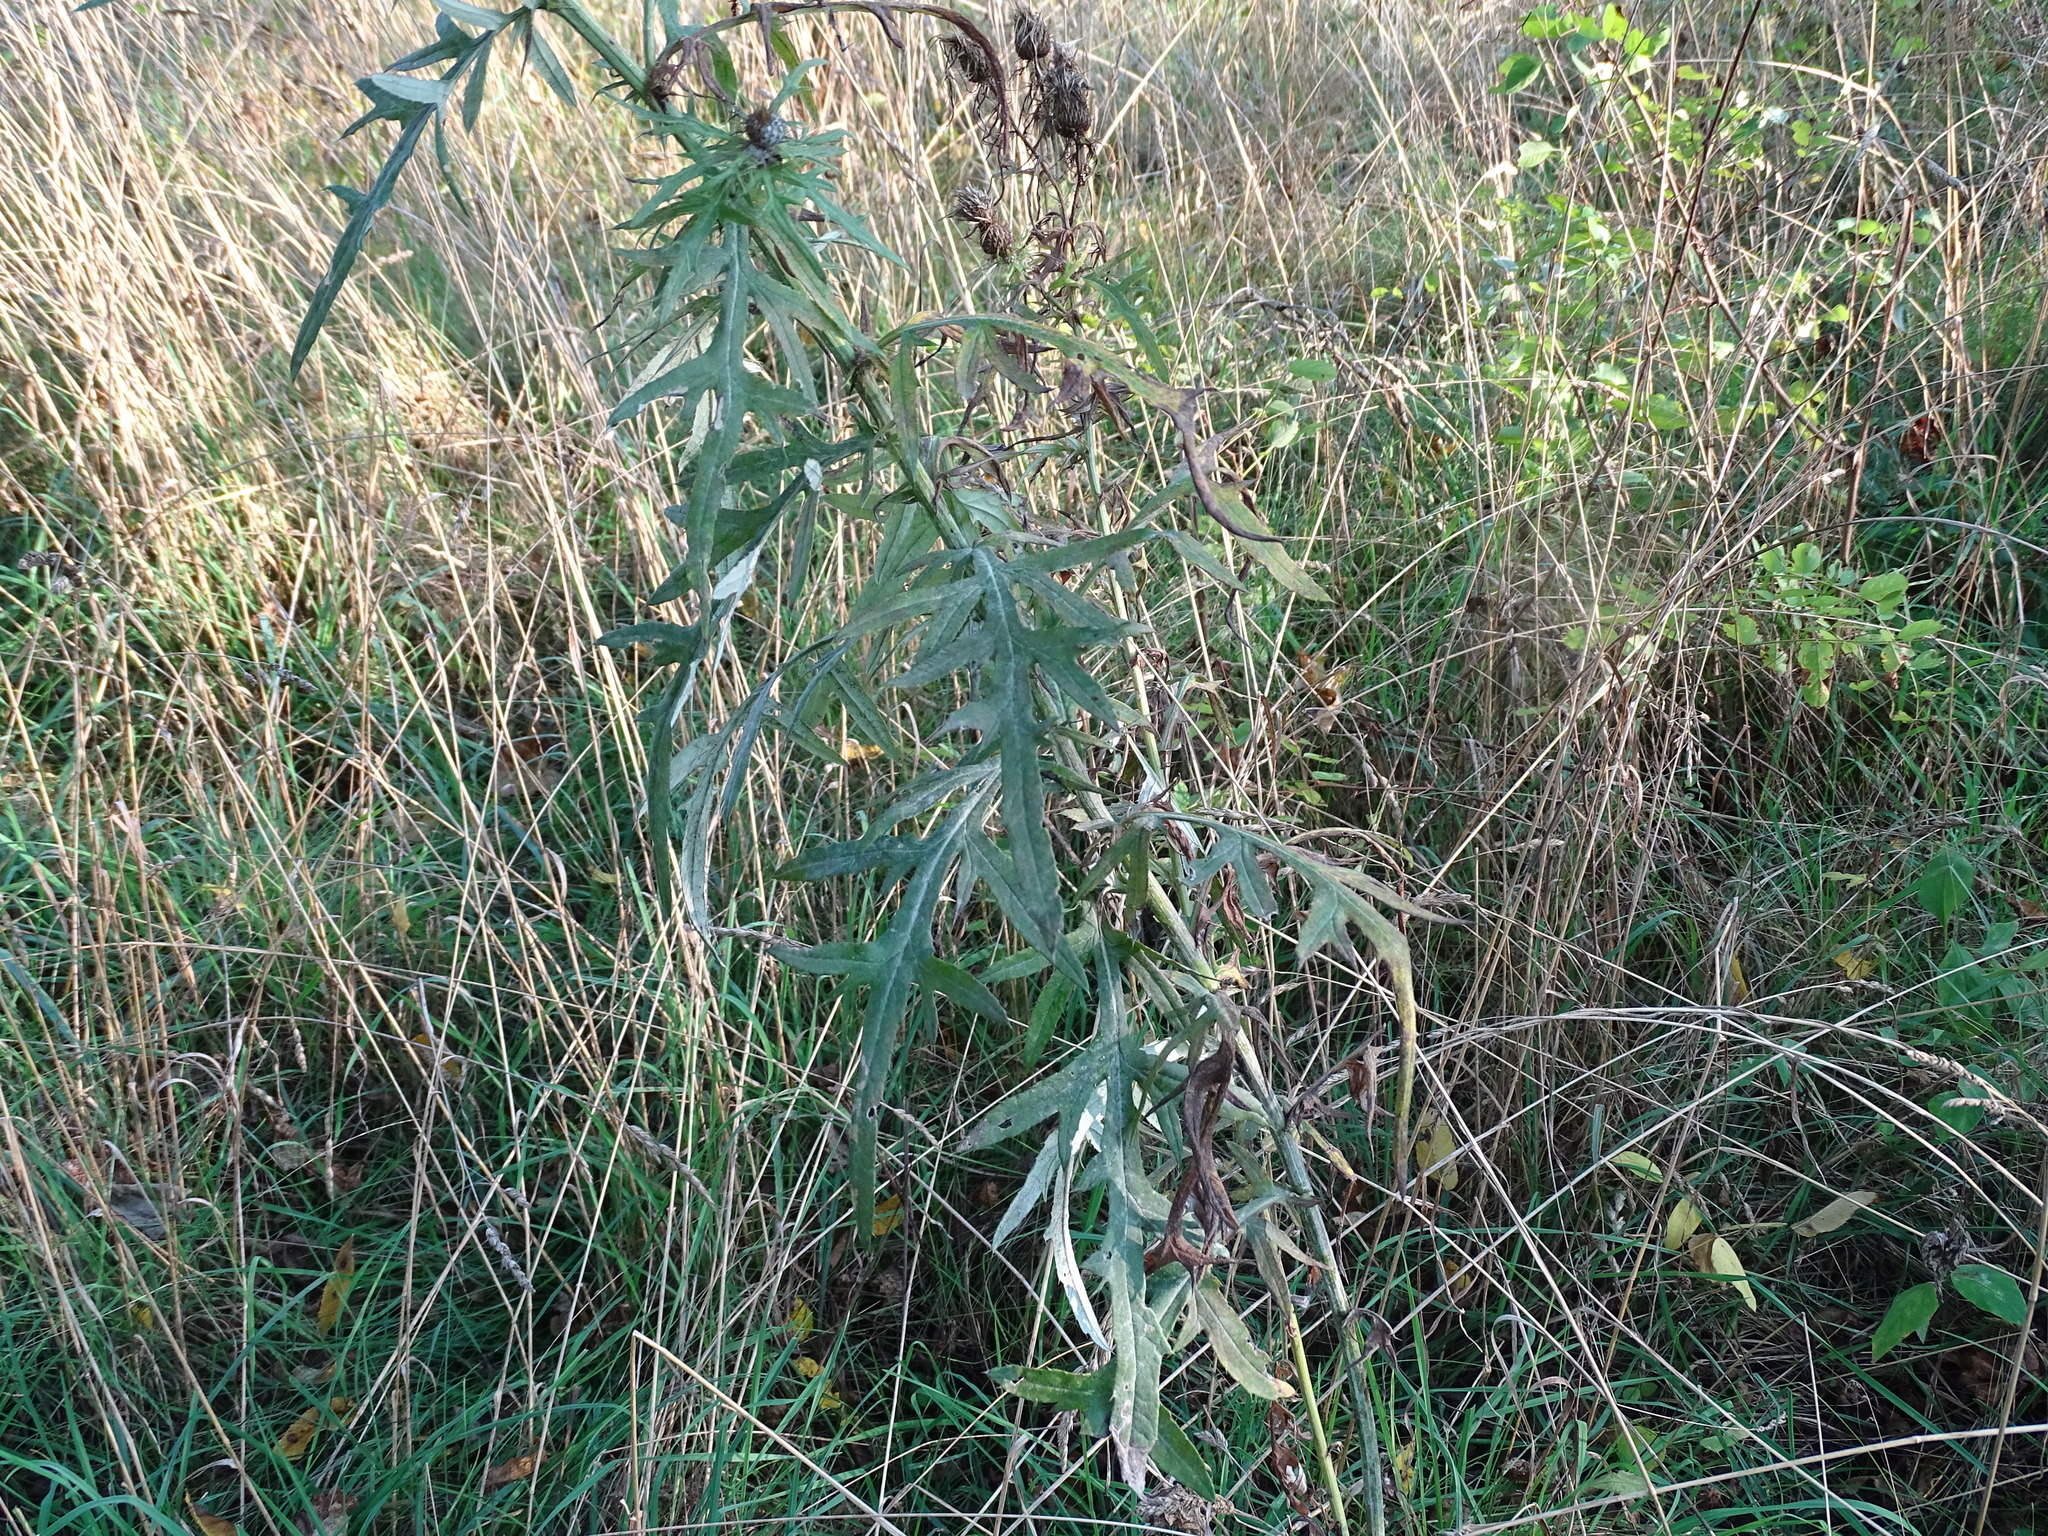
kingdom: Plantae
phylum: Tracheophyta
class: Magnoliopsida
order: Asterales
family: Asteraceae
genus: Cirsium
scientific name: Cirsium discolor
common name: Field thistle
